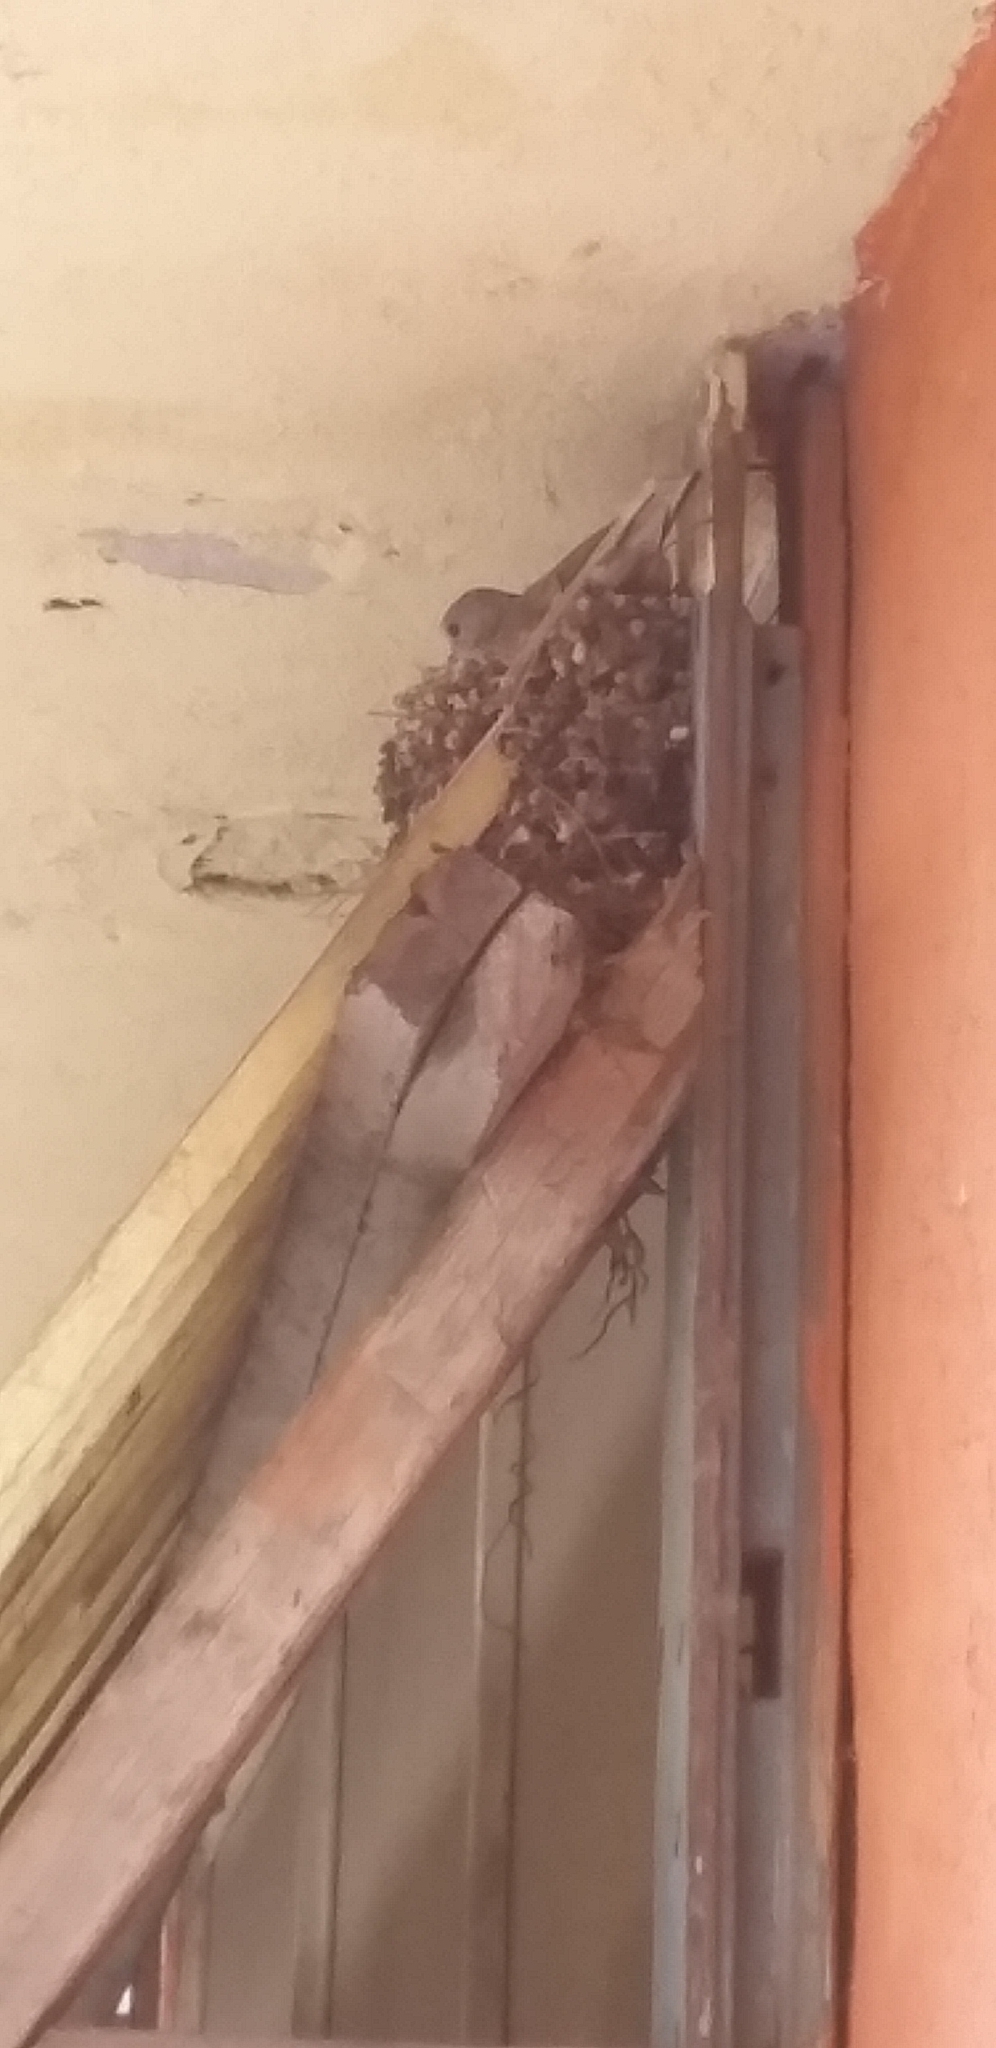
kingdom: Animalia
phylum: Chordata
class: Aves
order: Columbiformes
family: Columbidae
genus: Columbina
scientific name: Columbina inca
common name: Inca dove
